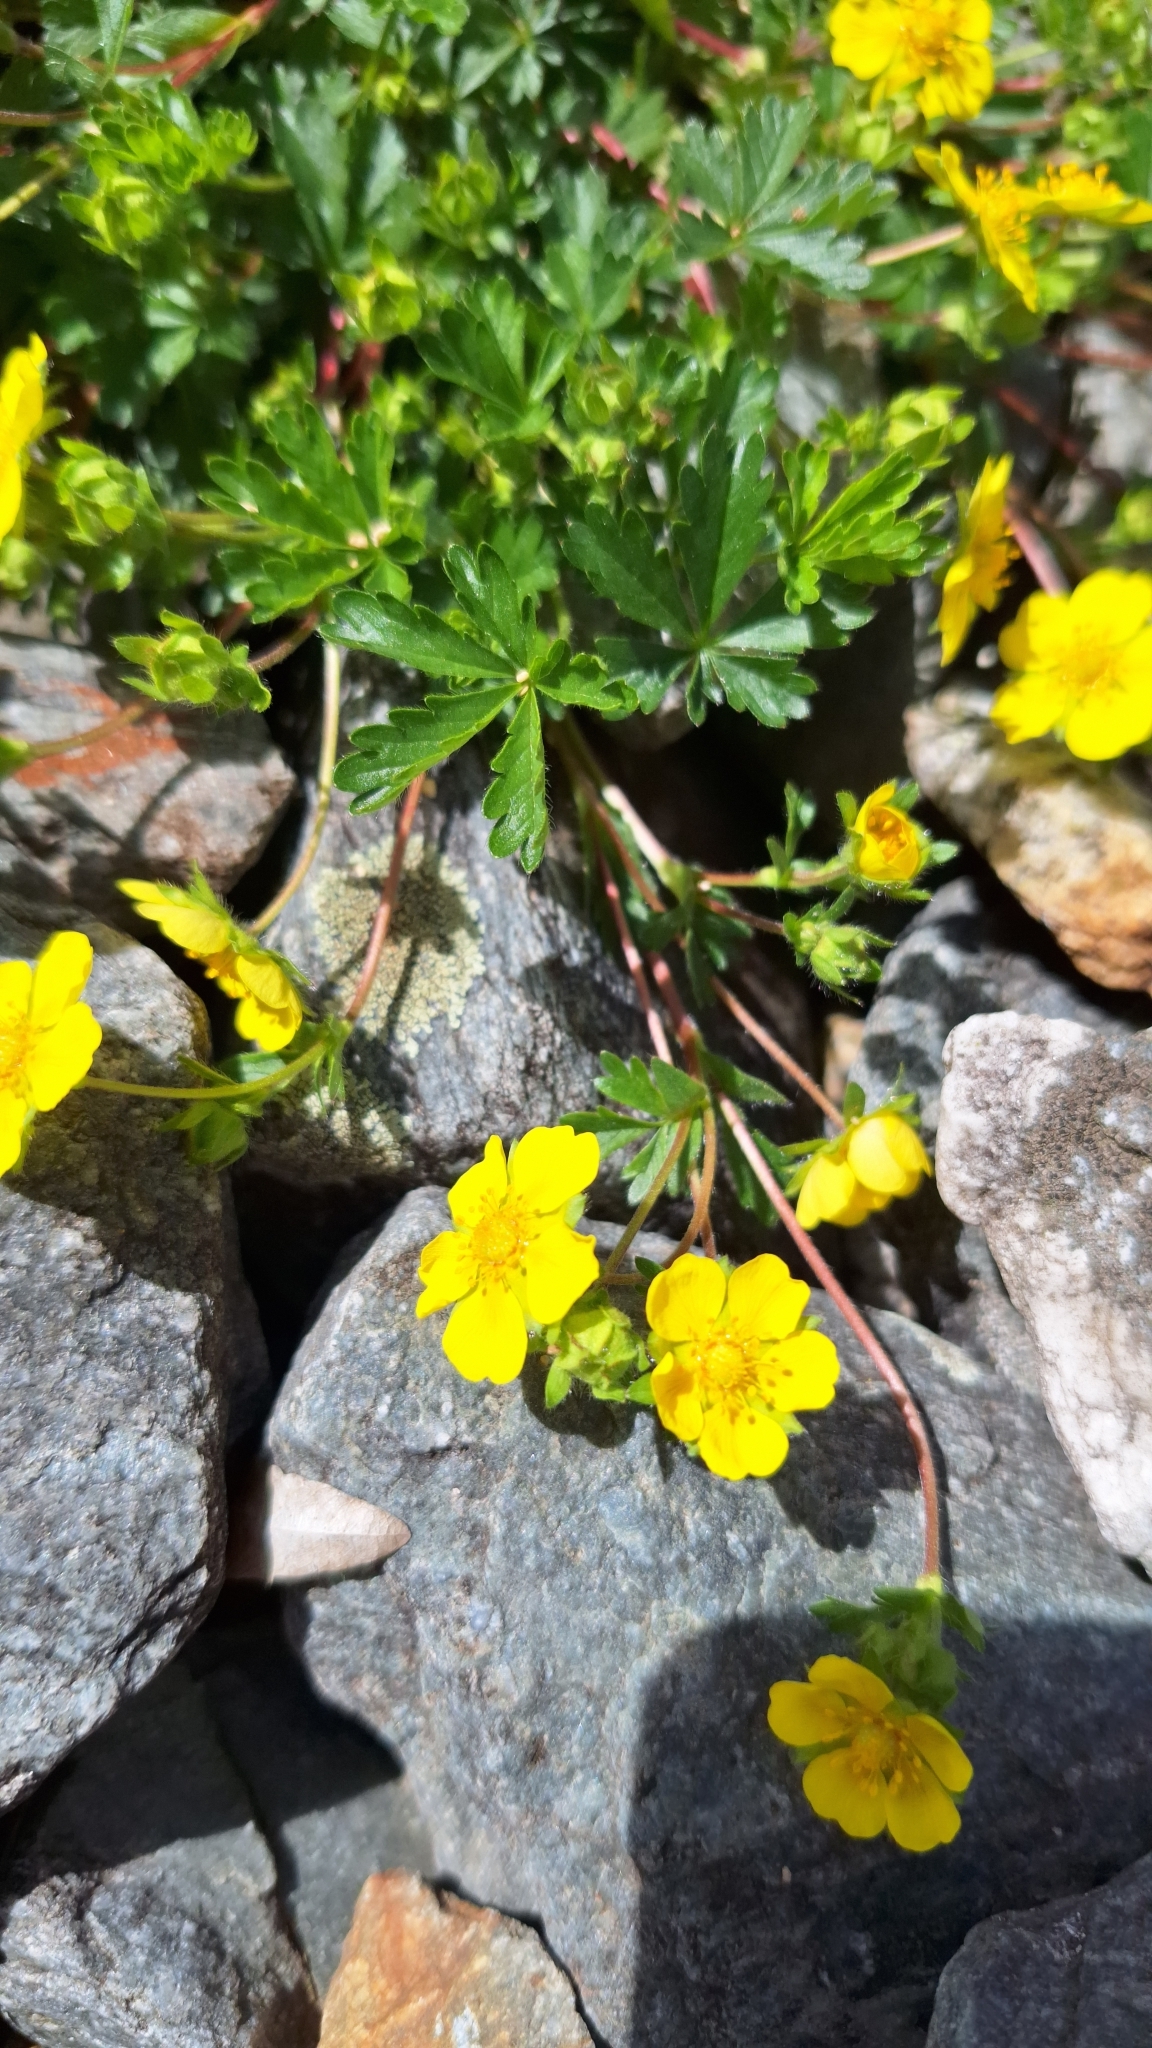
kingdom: Plantae
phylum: Tracheophyta
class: Magnoliopsida
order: Rosales
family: Rosaceae
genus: Potentilla
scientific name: Potentilla verna
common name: Spring cinquefoil
